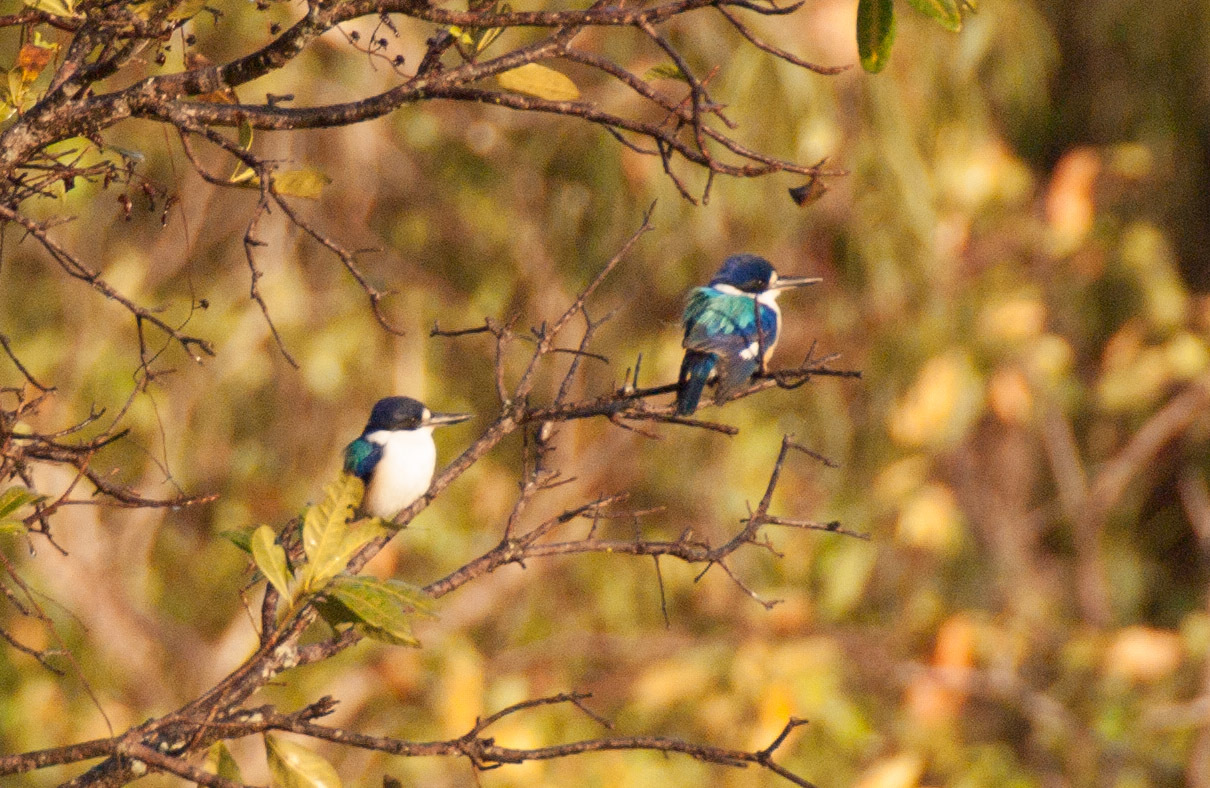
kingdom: Animalia
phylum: Chordata
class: Aves
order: Coraciiformes
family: Alcedinidae
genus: Todiramphus
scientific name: Todiramphus macleayii
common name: Forest kingfisher
